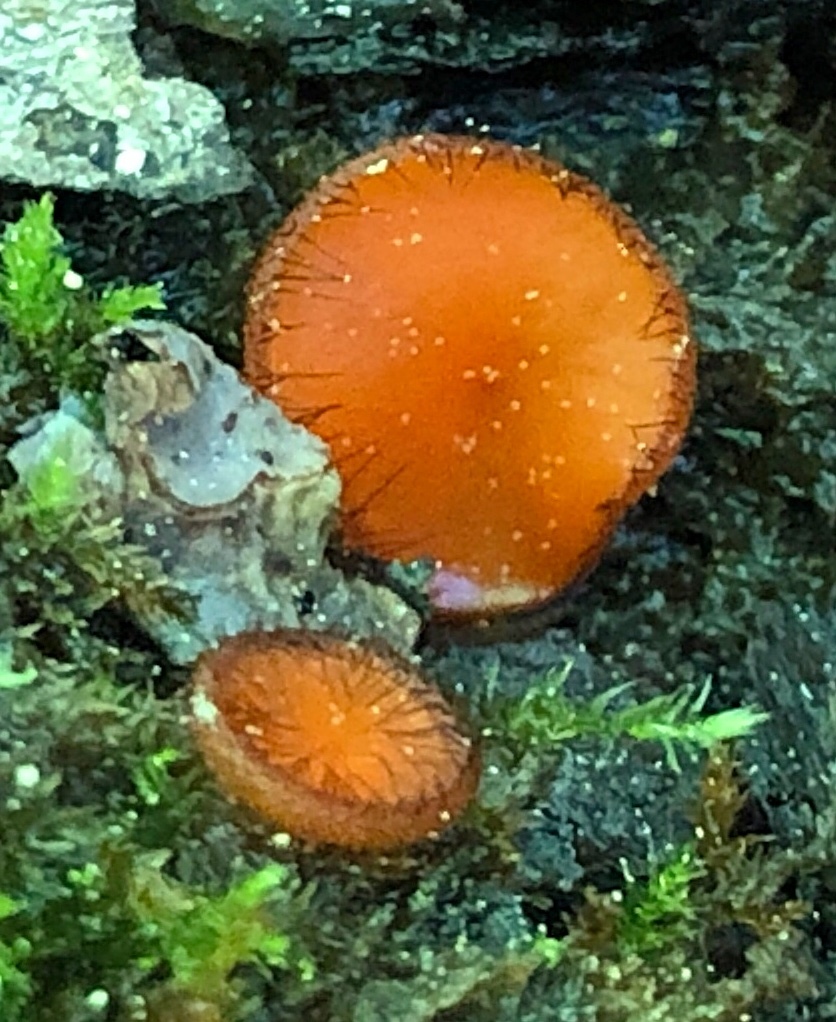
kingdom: Fungi
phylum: Ascomycota
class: Pezizomycetes
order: Pezizales
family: Pyronemataceae
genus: Scutellinia
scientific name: Scutellinia
